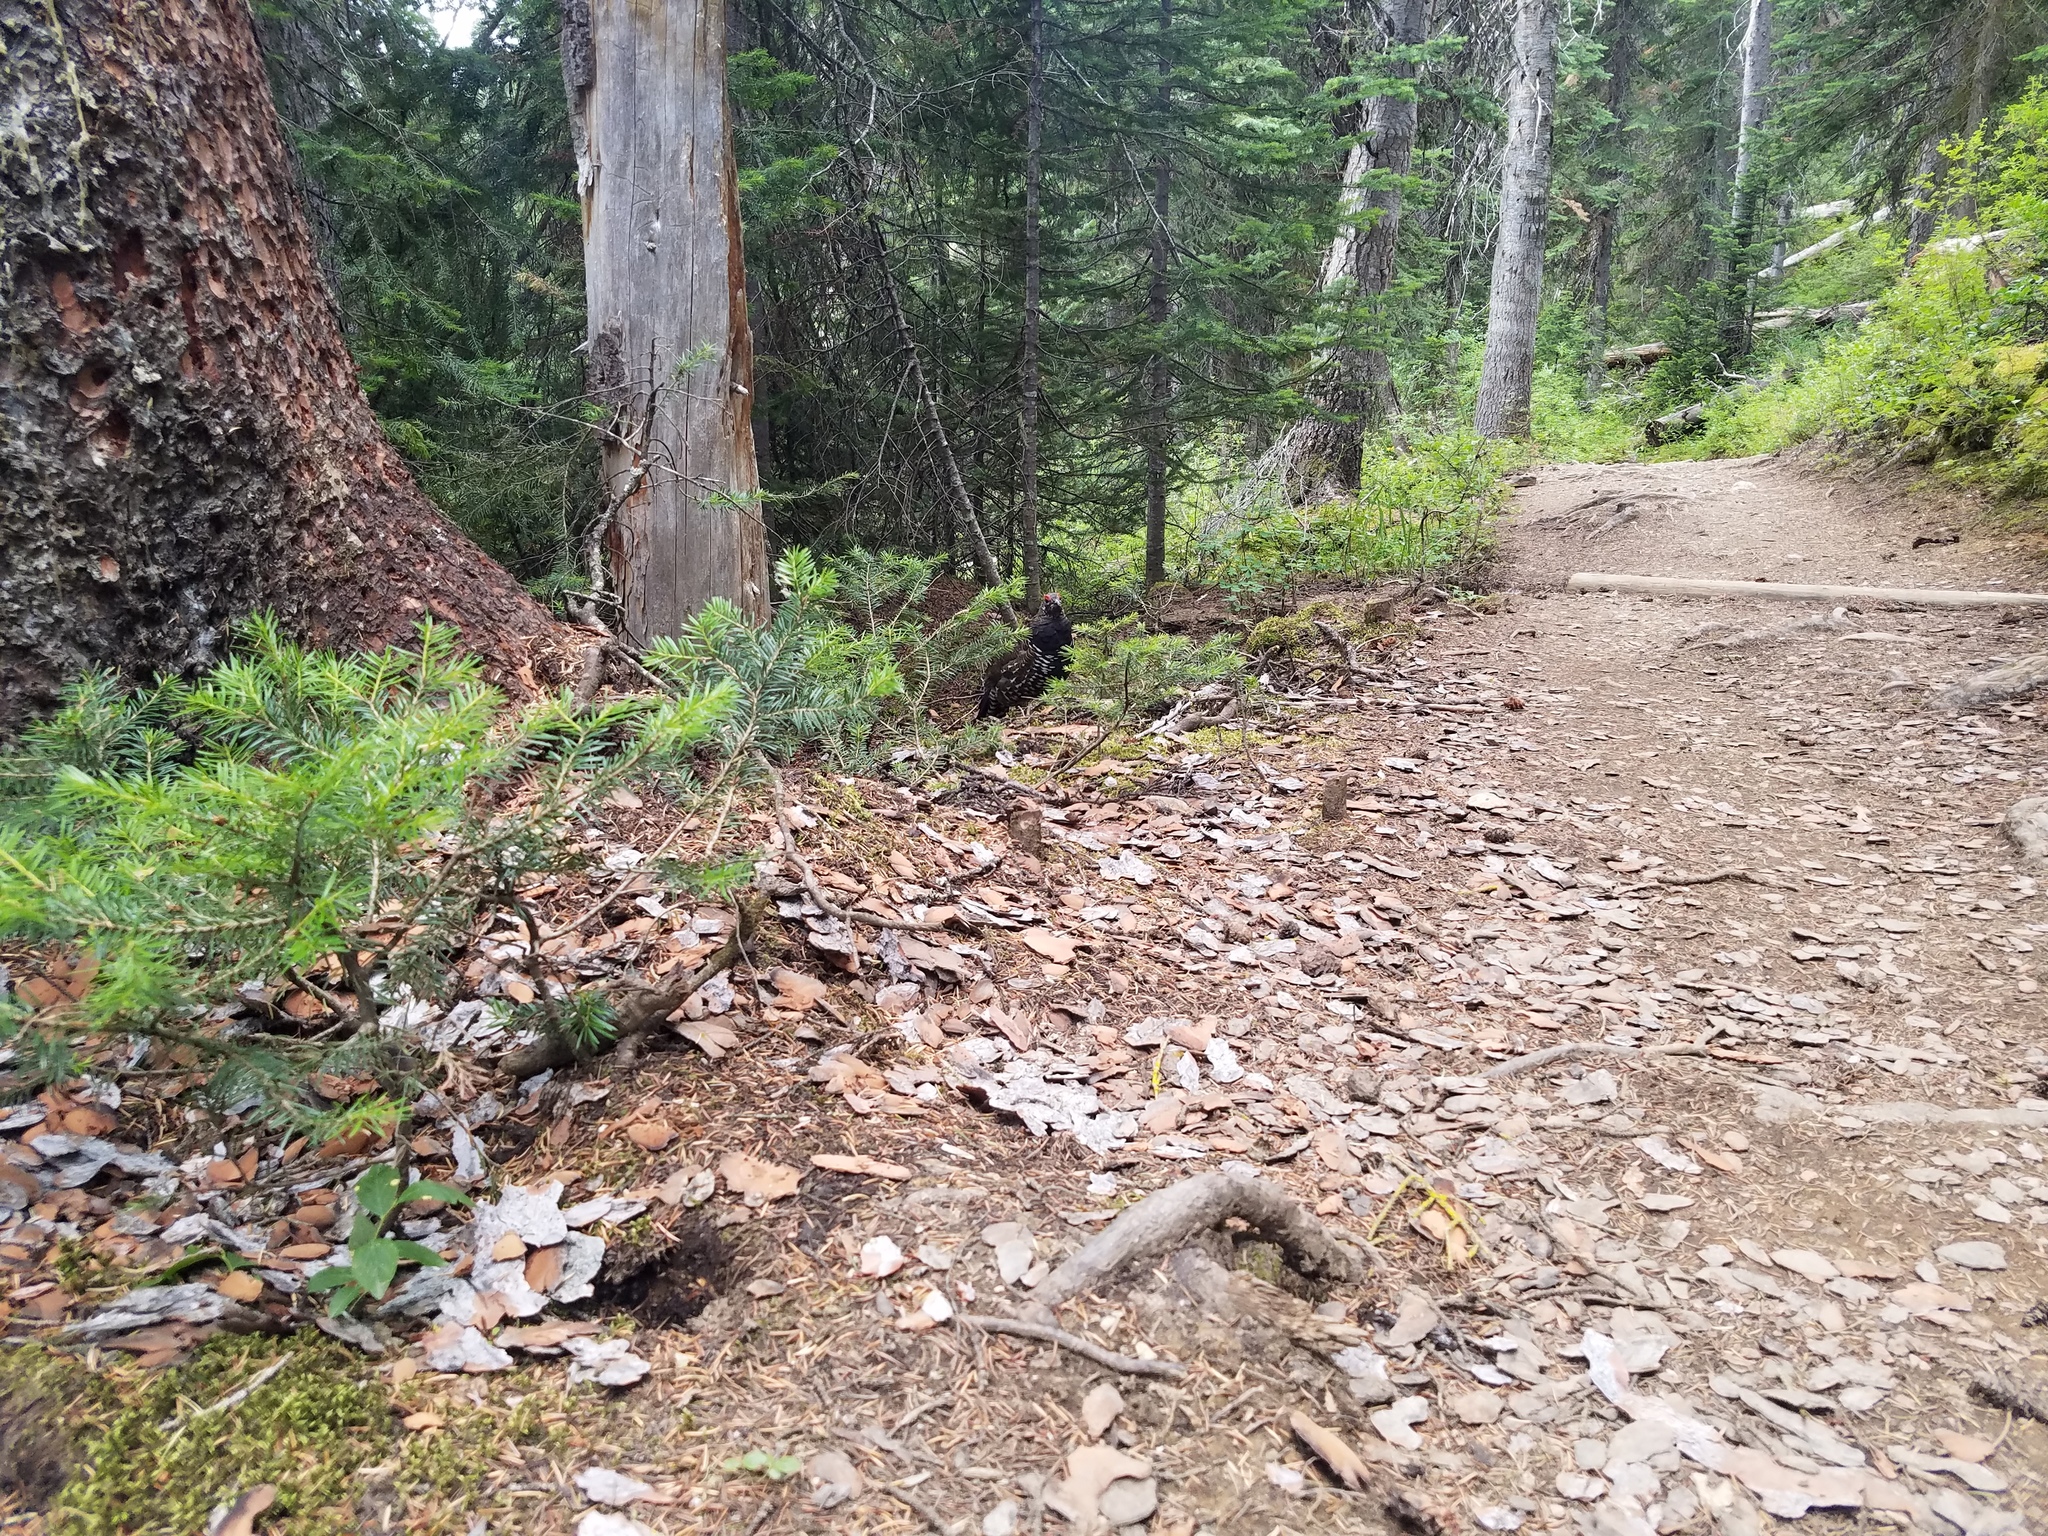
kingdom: Animalia
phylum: Chordata
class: Aves
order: Galliformes
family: Phasianidae
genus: Canachites
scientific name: Canachites canadensis
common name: Spruce grouse
